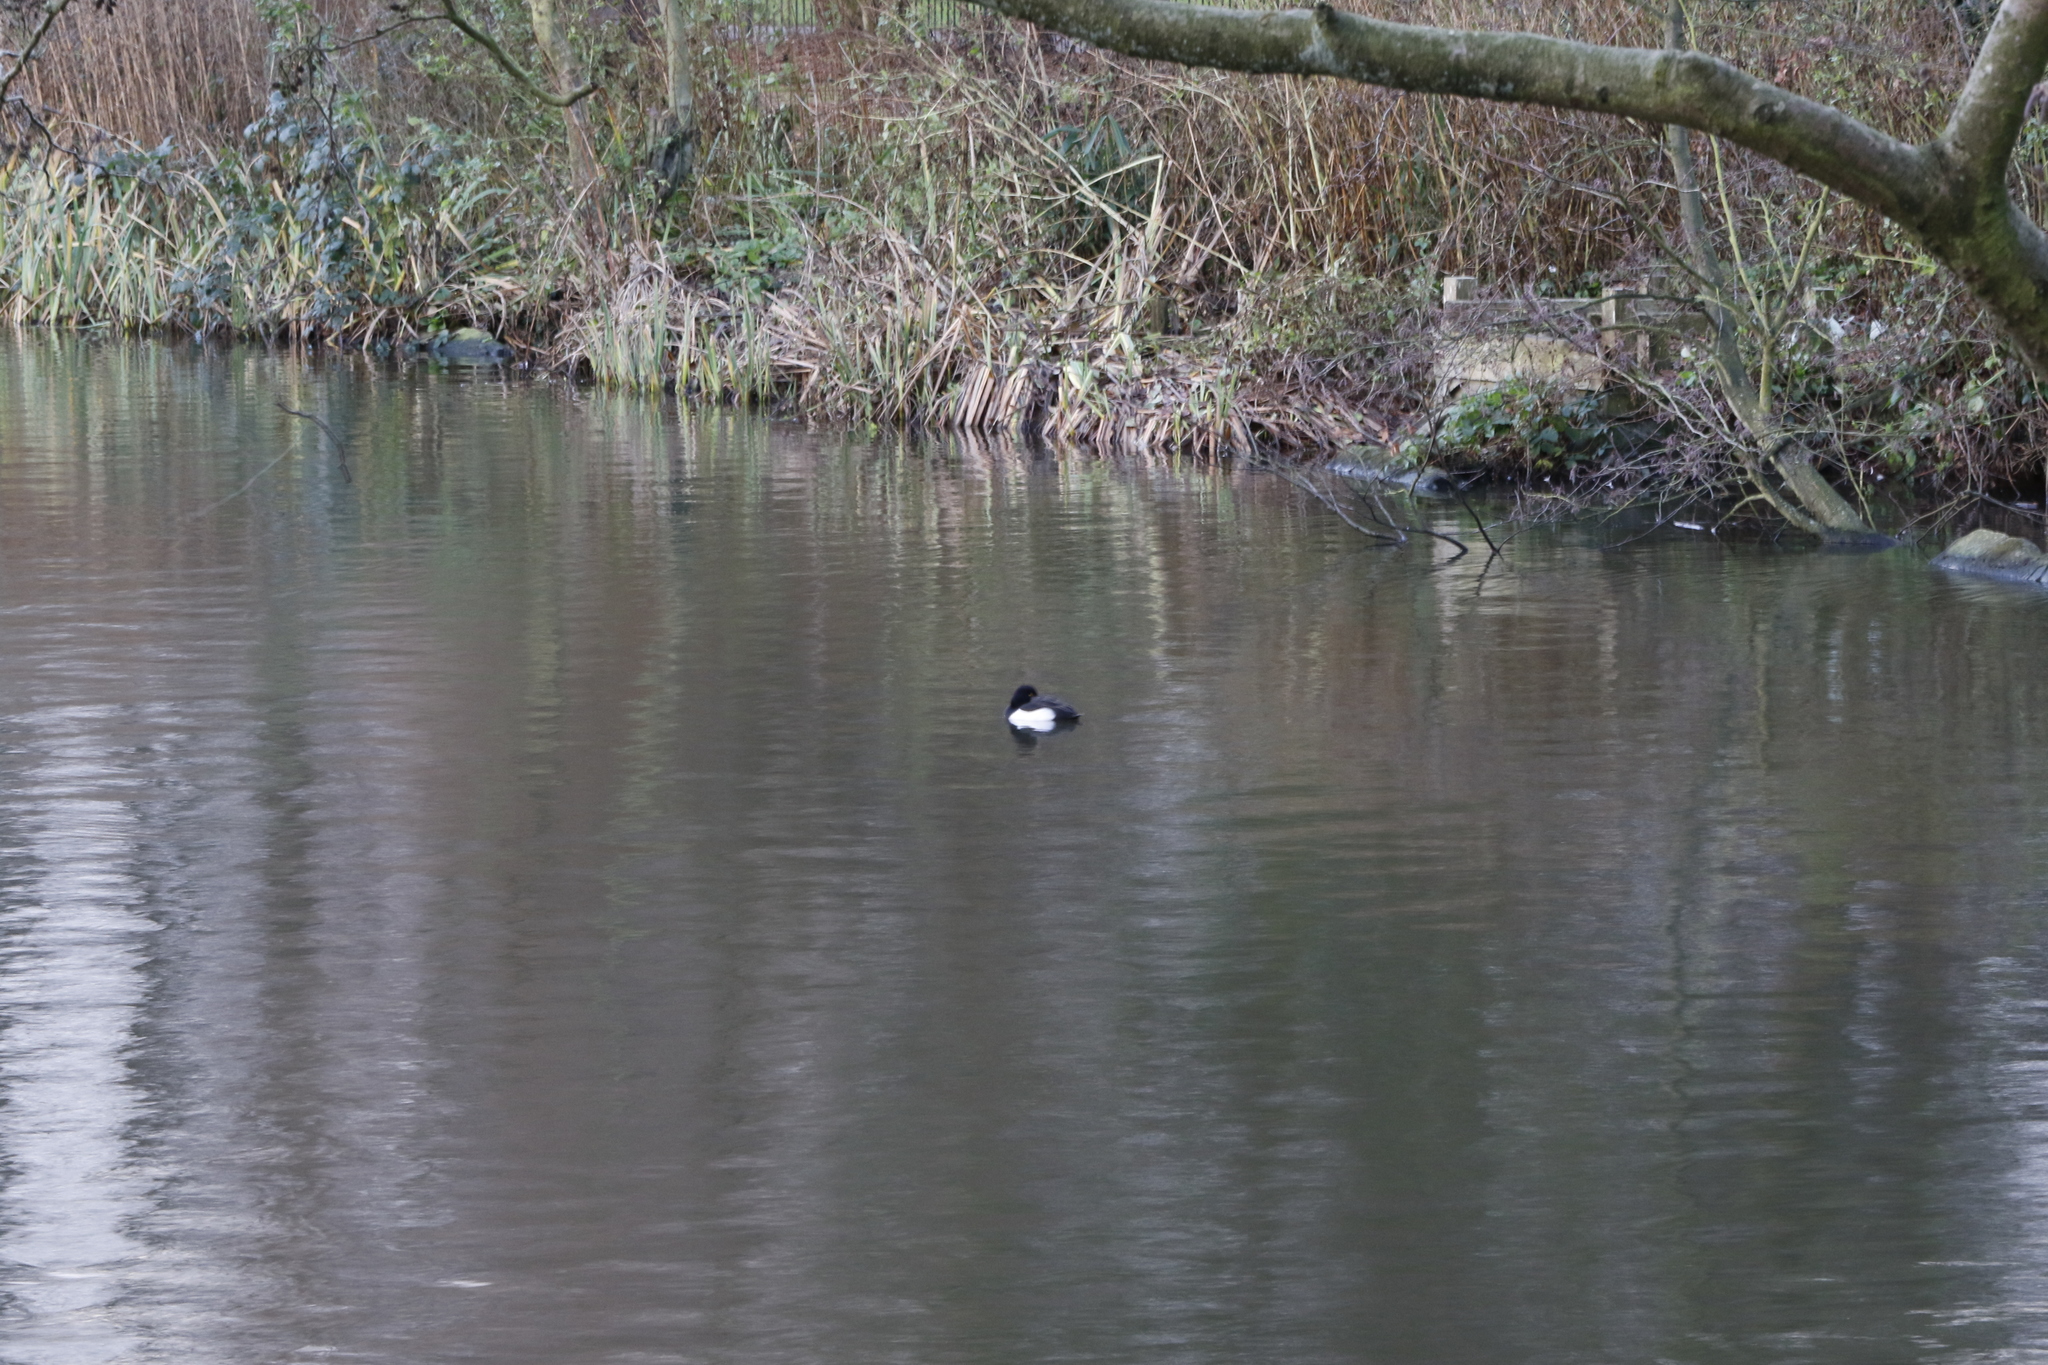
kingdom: Animalia
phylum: Chordata
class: Aves
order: Anseriformes
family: Anatidae
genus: Aythya
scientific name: Aythya fuligula
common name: Tufted duck
